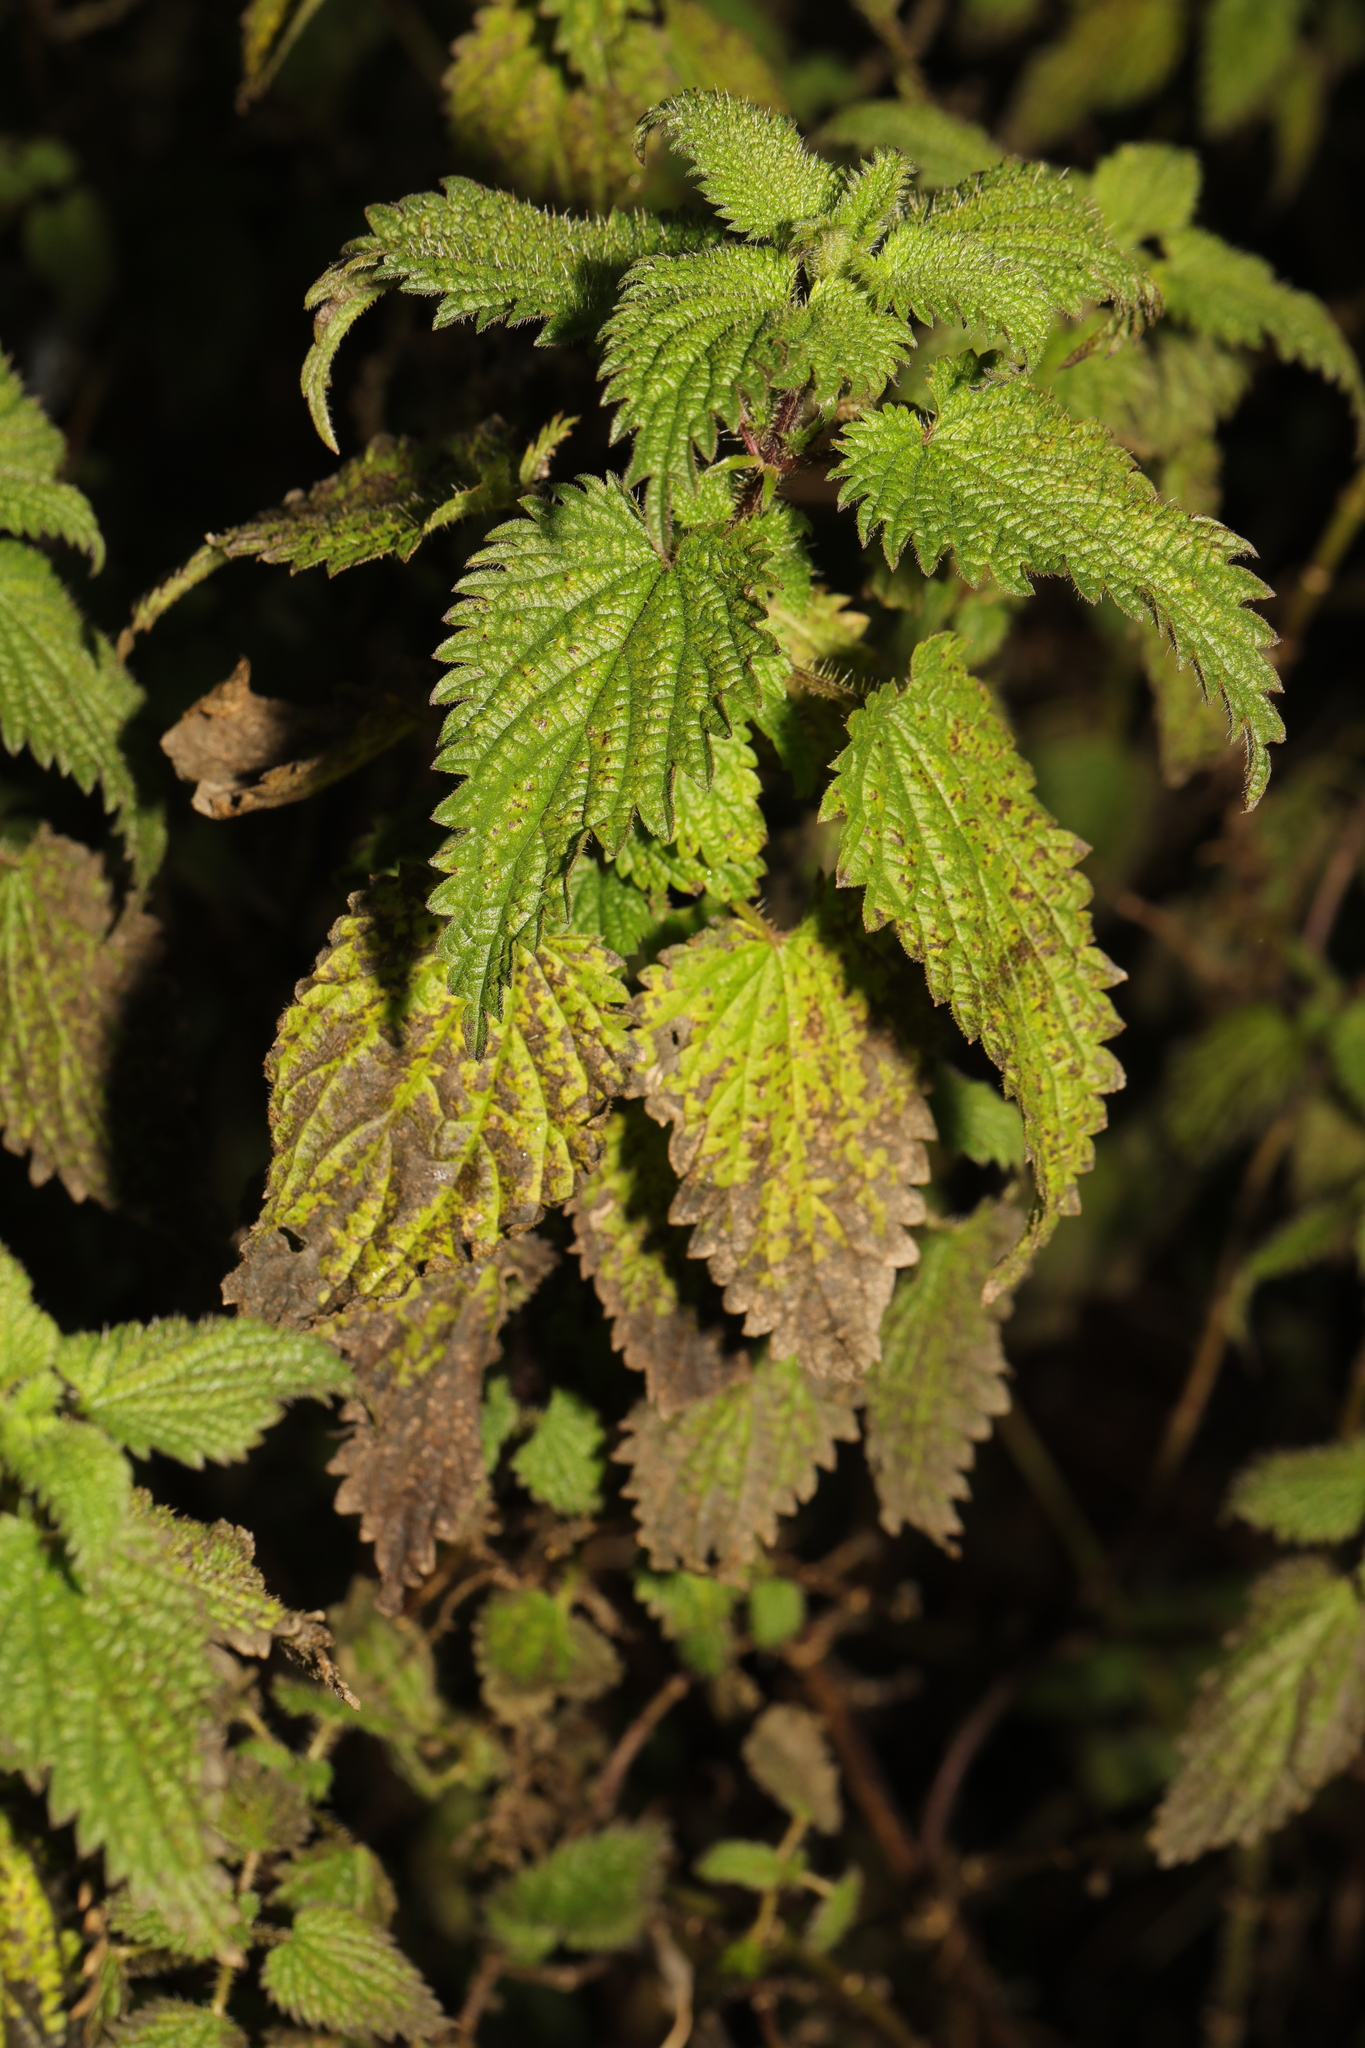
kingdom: Plantae
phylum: Tracheophyta
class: Magnoliopsida
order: Rosales
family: Urticaceae
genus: Urtica
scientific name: Urtica dioica
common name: Common nettle
